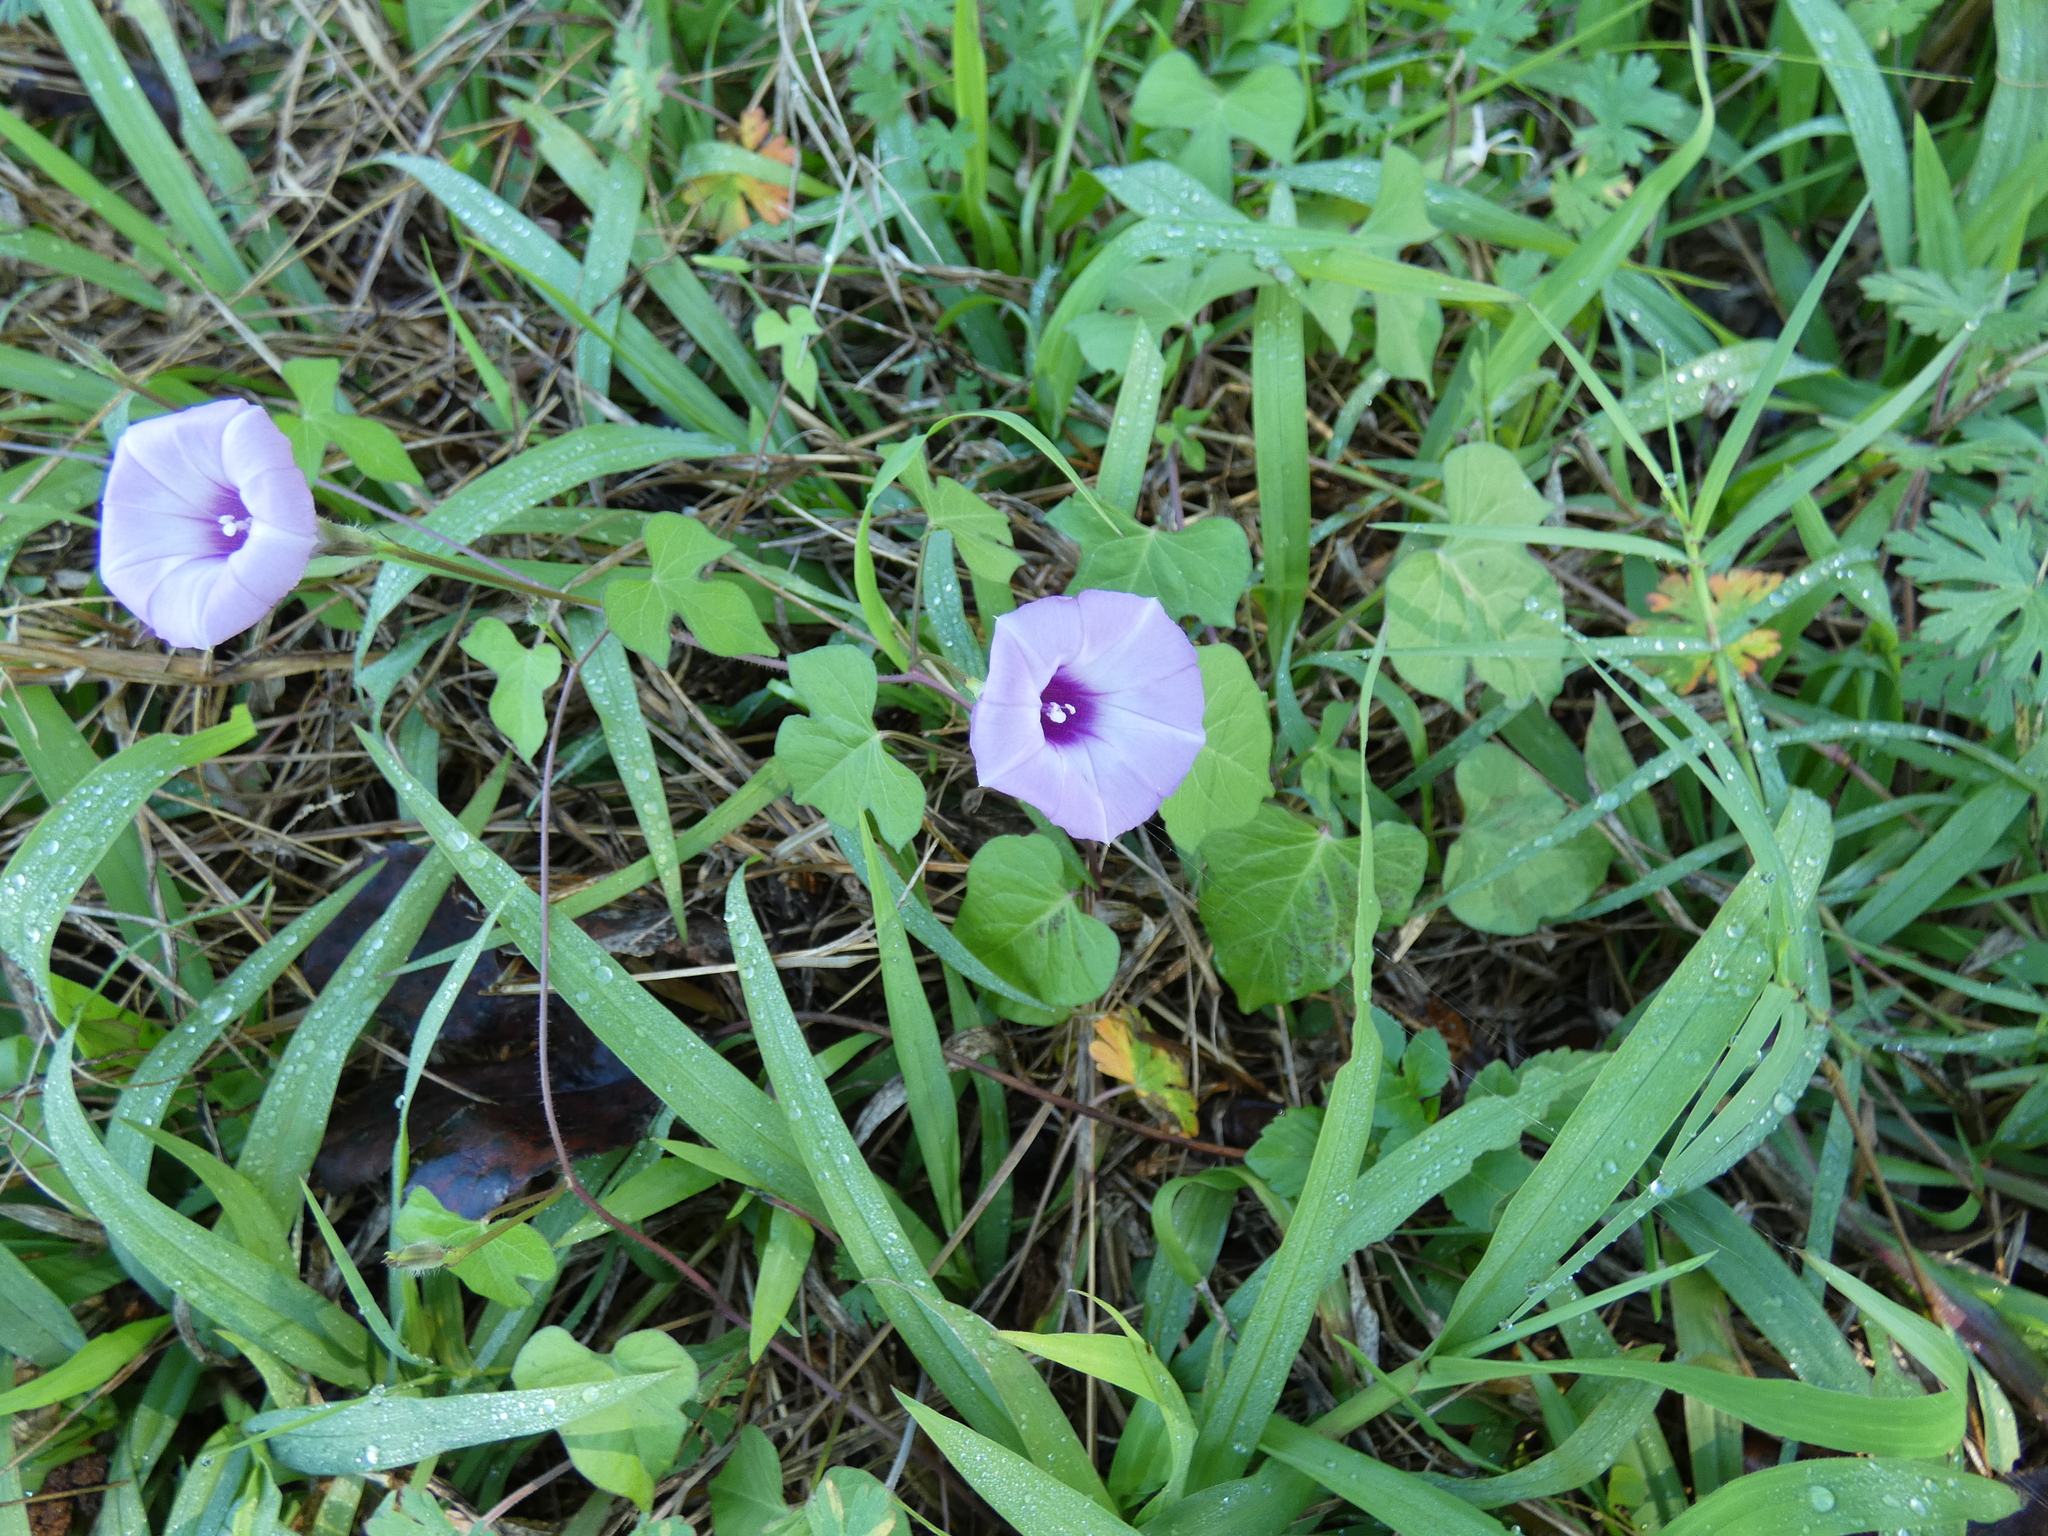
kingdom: Plantae
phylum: Tracheophyta
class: Magnoliopsida
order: Solanales
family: Convolvulaceae
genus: Ipomoea
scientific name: Ipomoea cordatotriloba
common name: Cotton morning glory
